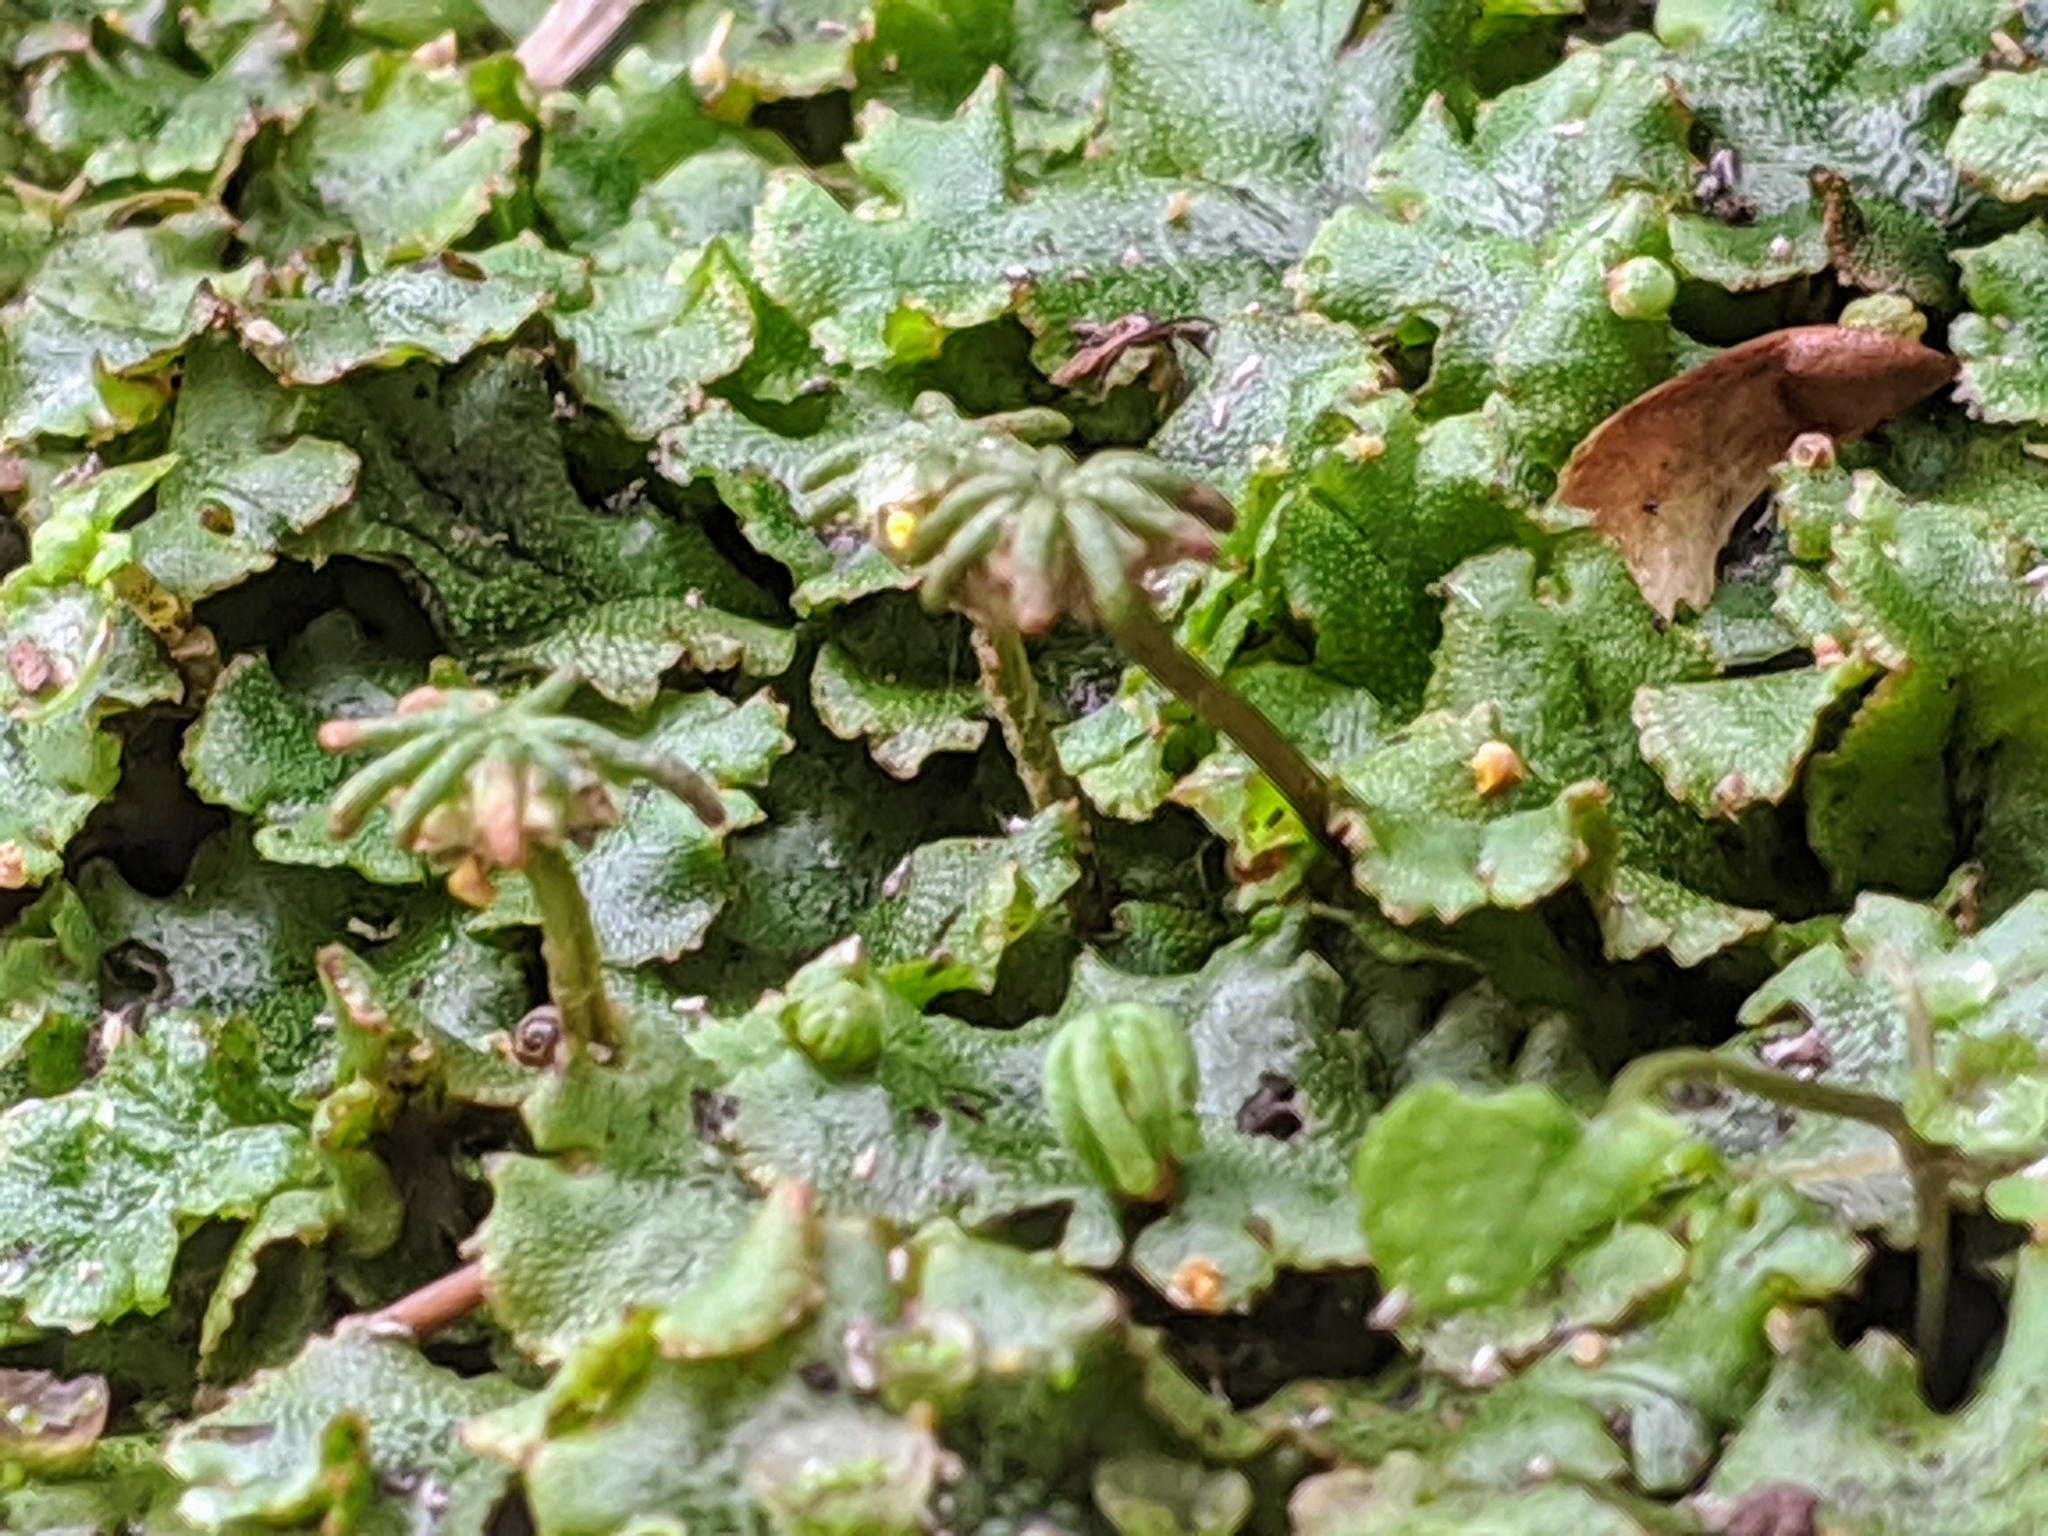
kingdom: Plantae
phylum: Marchantiophyta
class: Marchantiopsida
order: Marchantiales
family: Marchantiaceae
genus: Marchantia
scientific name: Marchantia polymorpha
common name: Common liverwort
